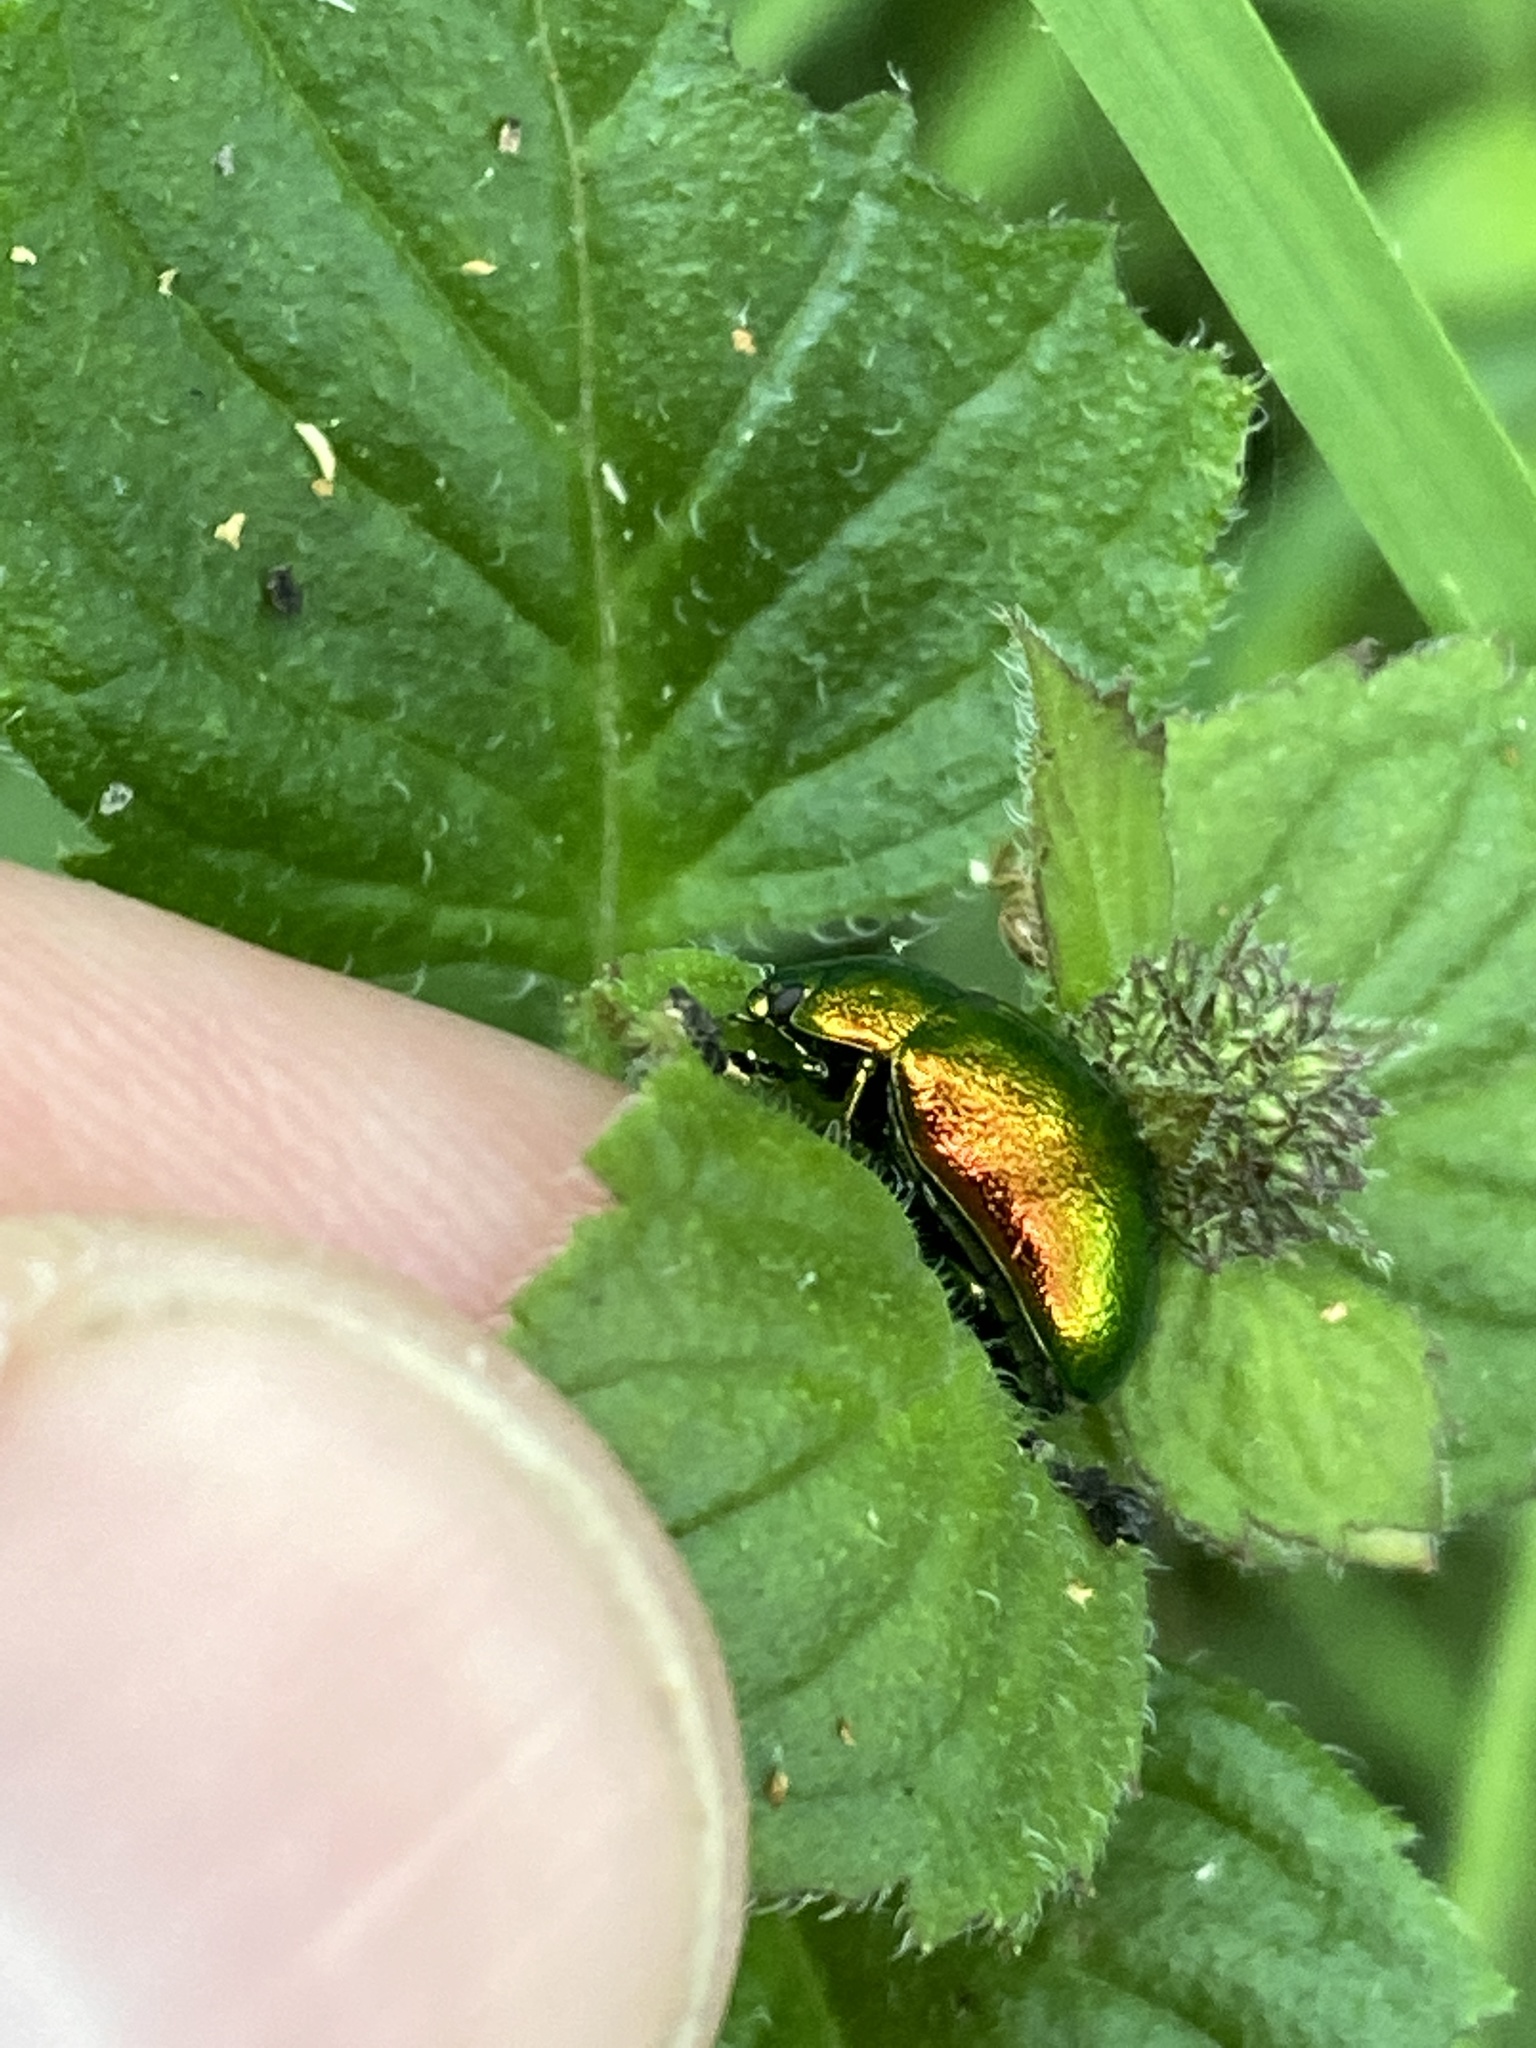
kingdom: Animalia
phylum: Arthropoda
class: Insecta
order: Coleoptera
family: Chrysomelidae
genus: Chrysolina
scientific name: Chrysolina herbacea
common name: Mint leaf beatle
